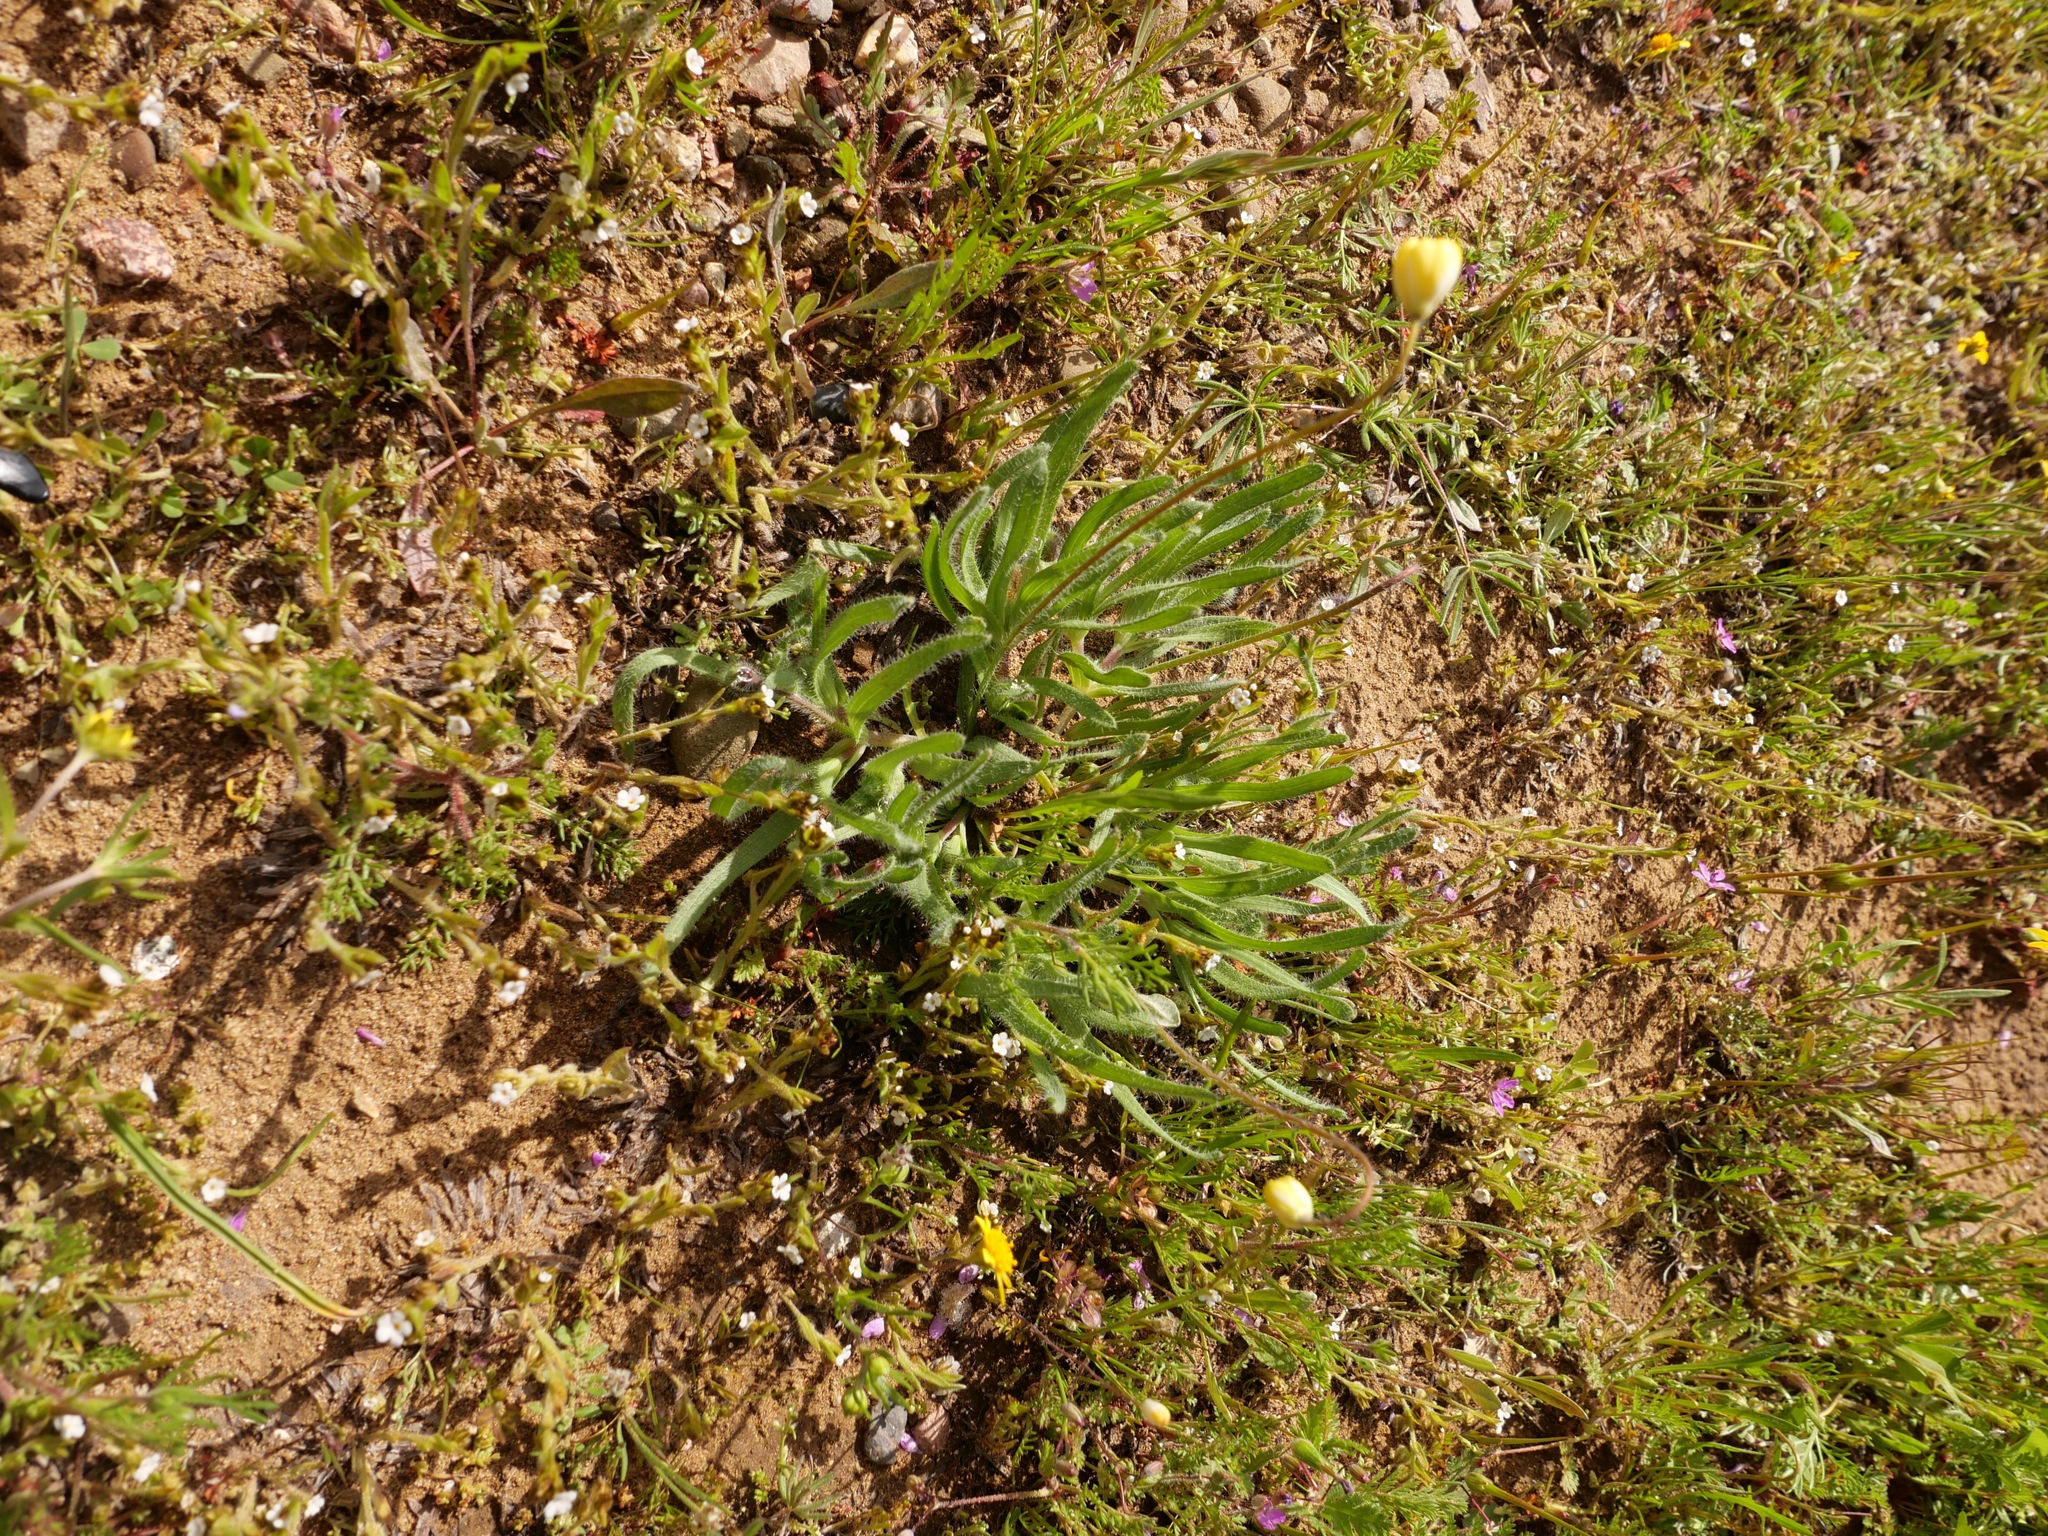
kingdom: Plantae
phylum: Tracheophyta
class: Magnoliopsida
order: Ranunculales
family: Papaveraceae
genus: Platystemon
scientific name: Platystemon californicus
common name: Cream-cups
